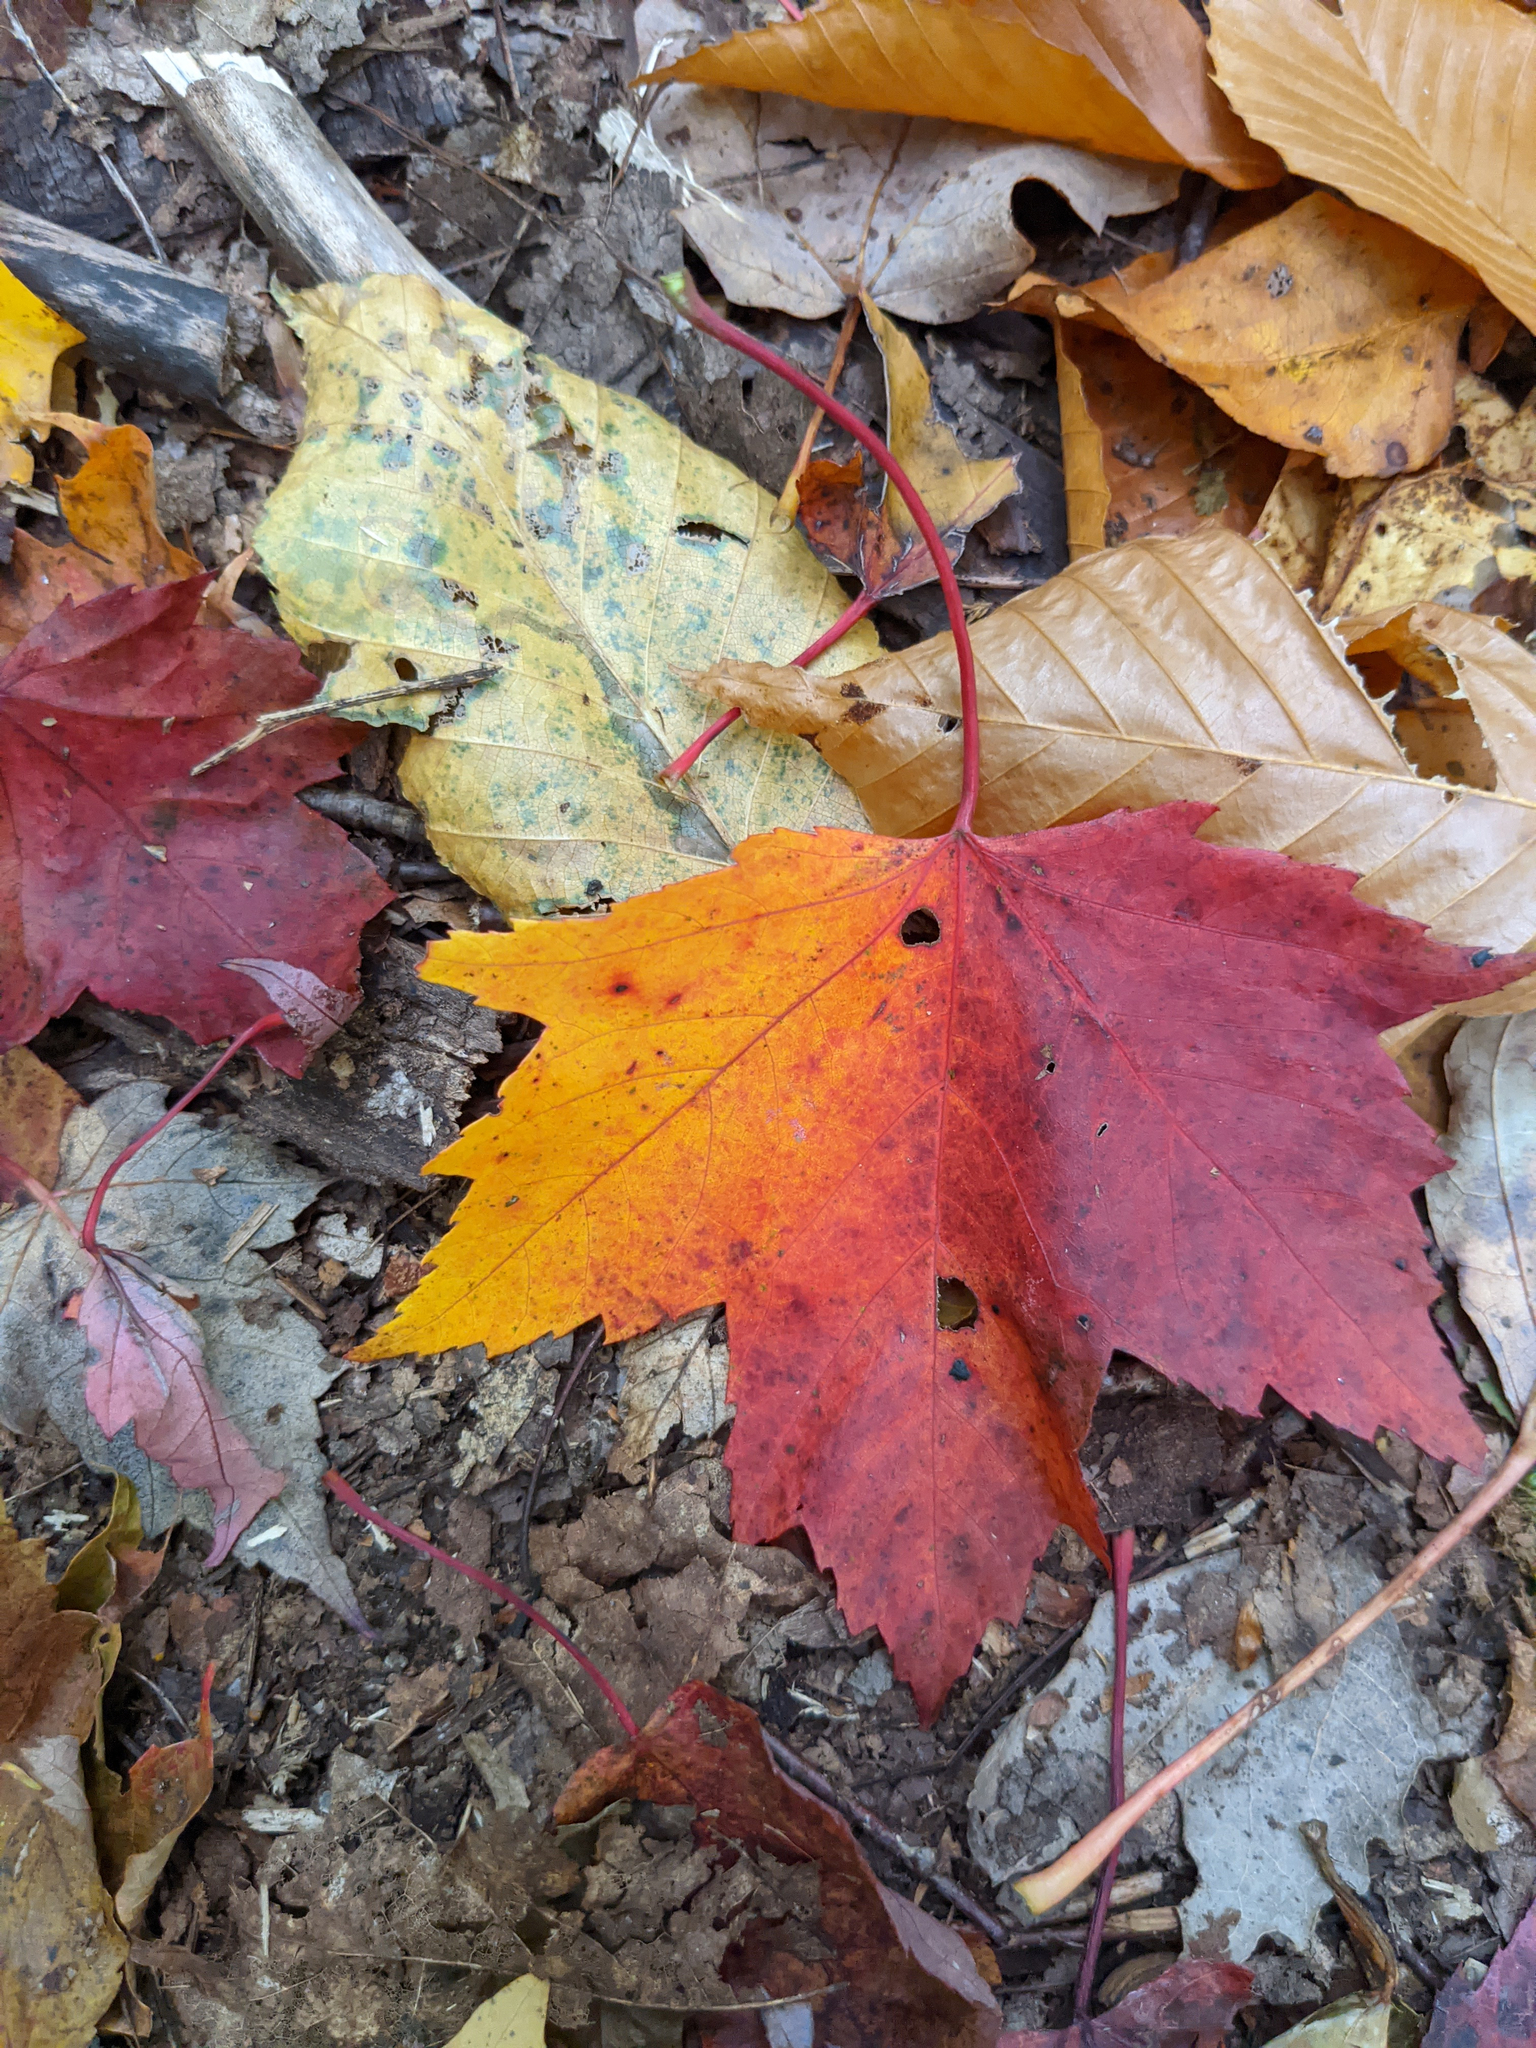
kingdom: Plantae
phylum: Tracheophyta
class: Magnoliopsida
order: Sapindales
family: Sapindaceae
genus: Acer
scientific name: Acer rubrum
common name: Red maple
